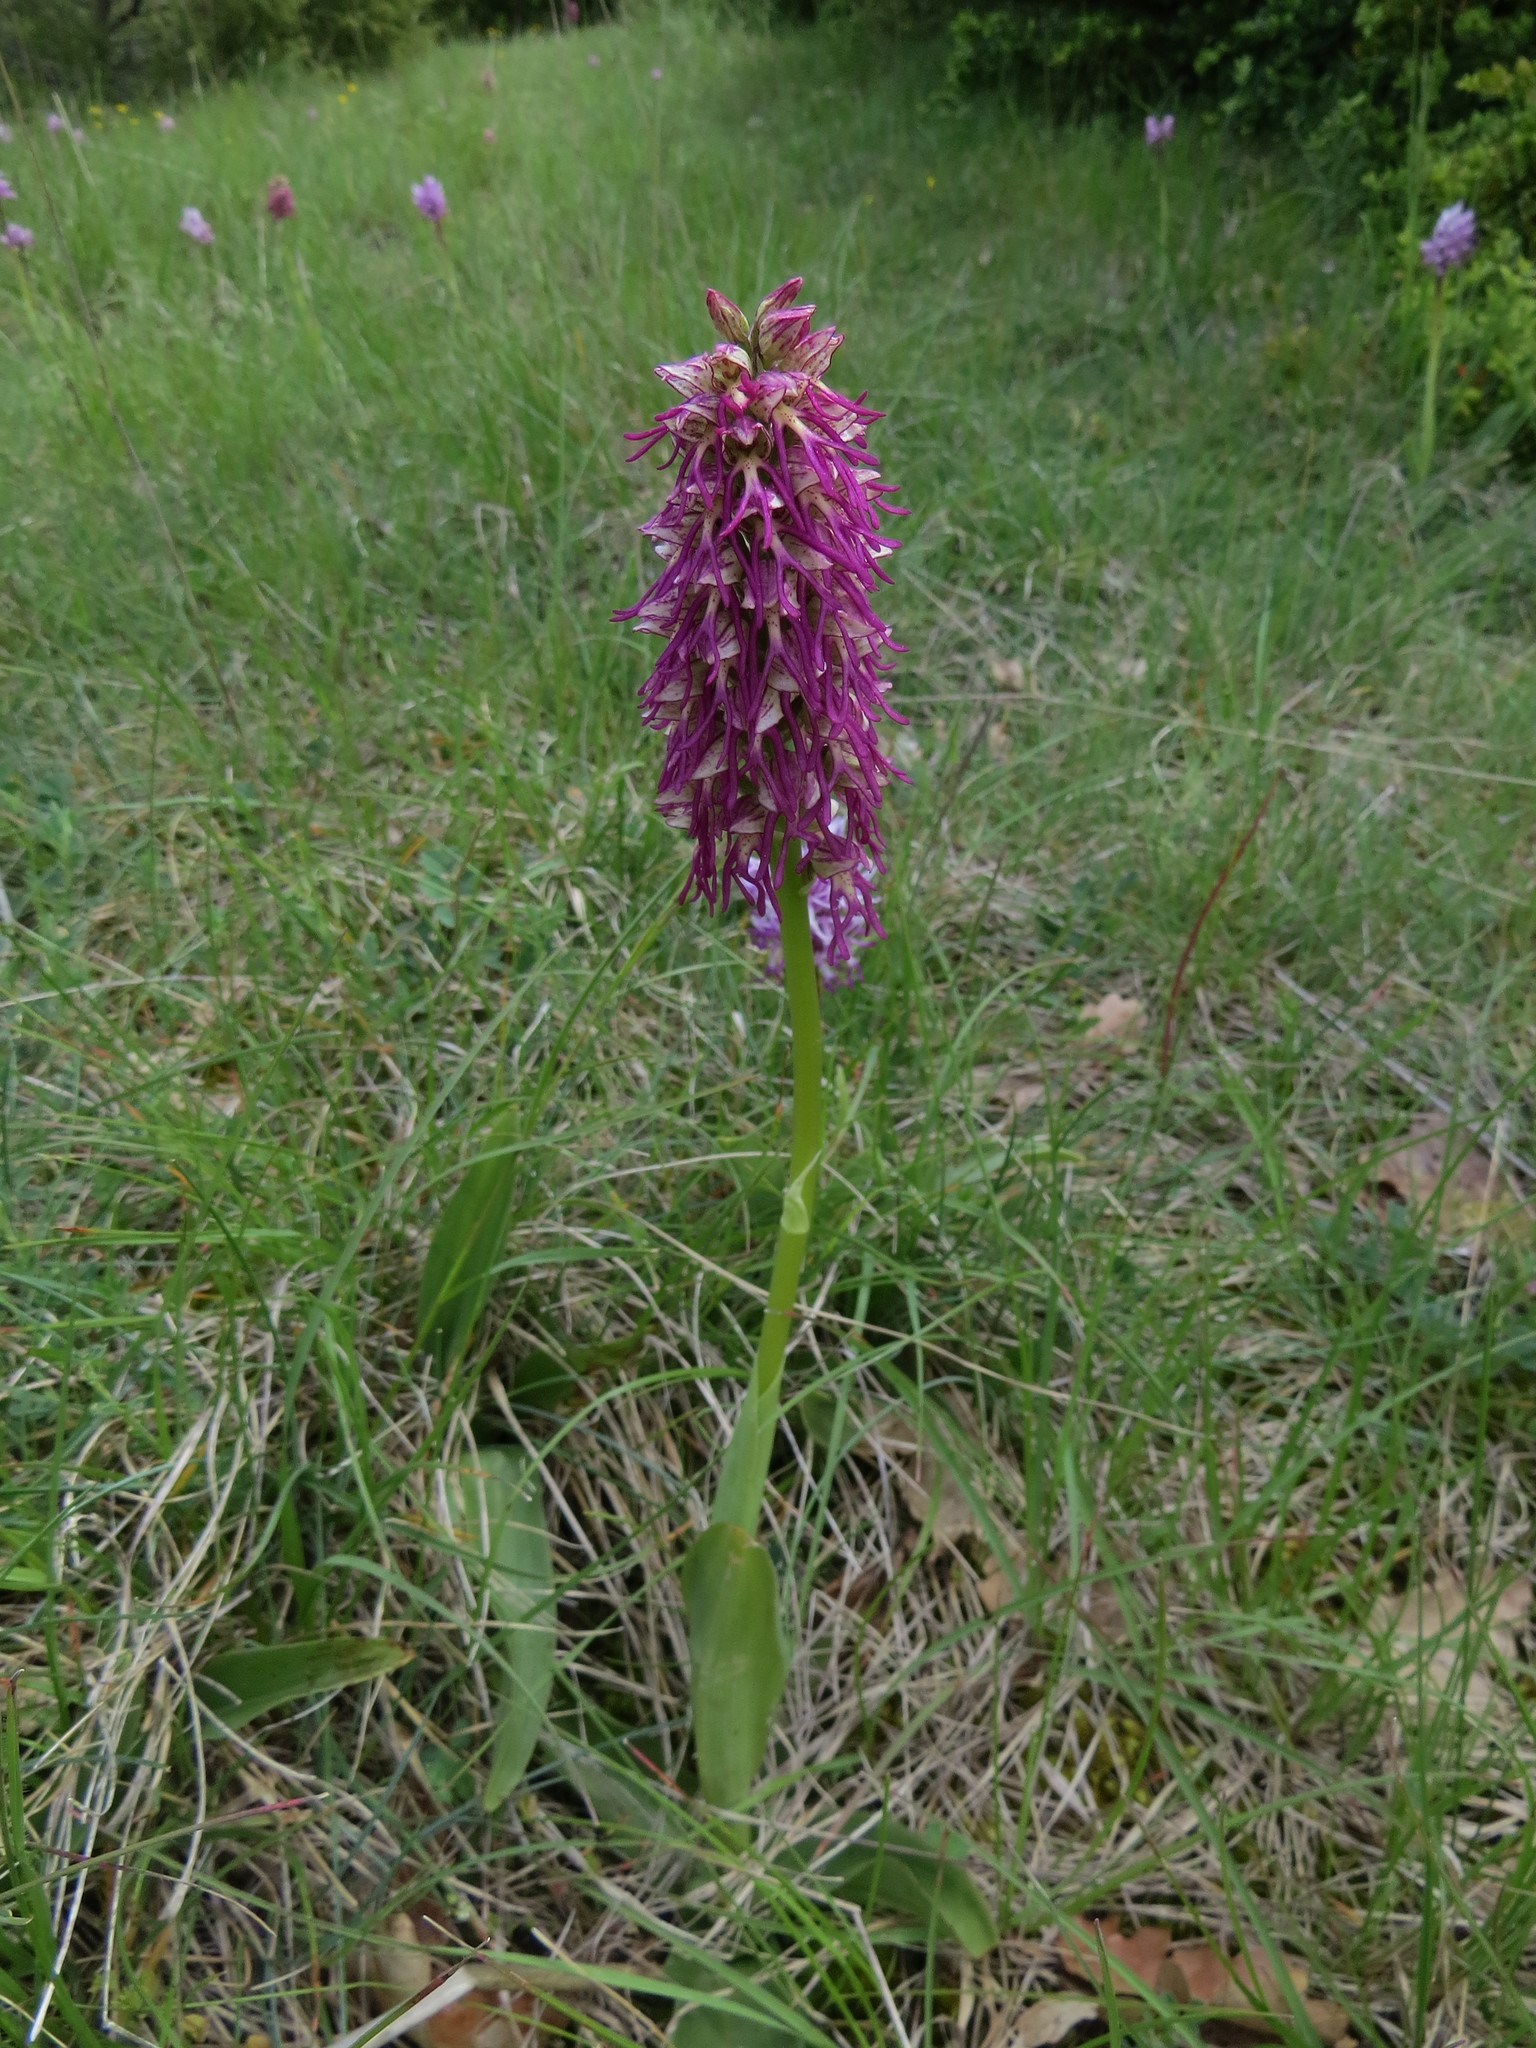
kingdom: Plantae
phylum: Tracheophyta
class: Liliopsida
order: Asparagales
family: Orchidaceae
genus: Orchis
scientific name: Orchis bergonii
